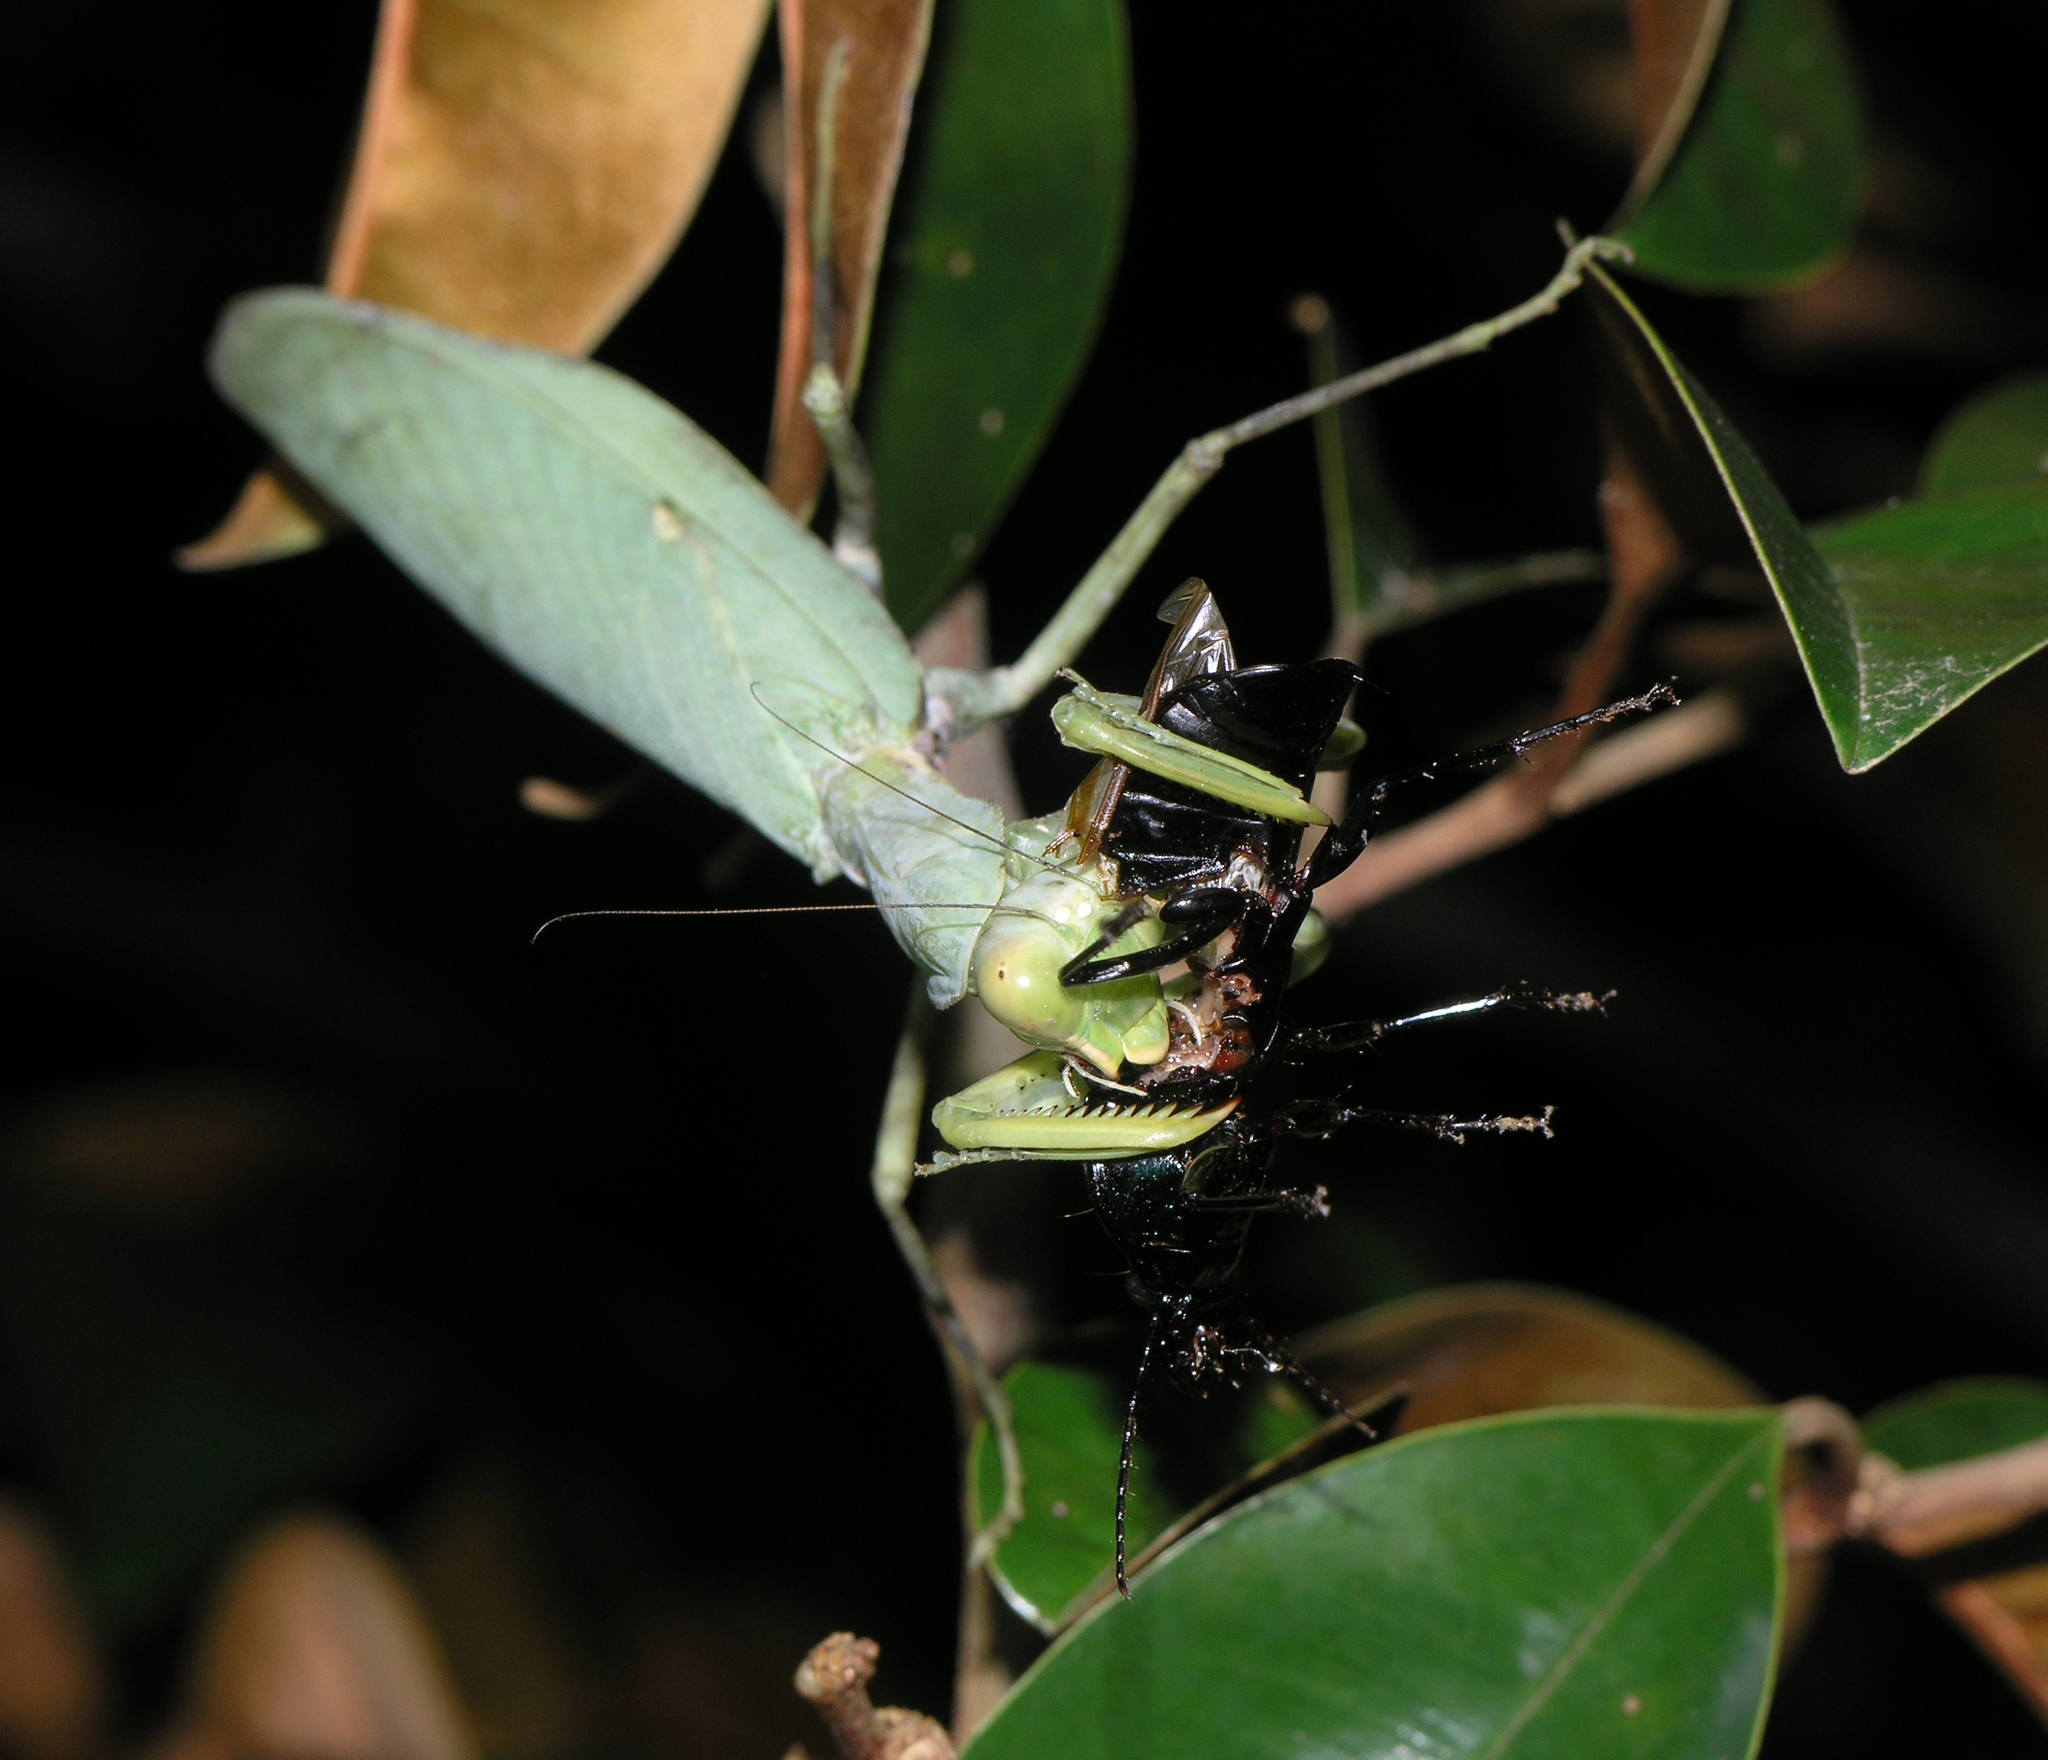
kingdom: Animalia
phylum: Arthropoda
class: Insecta
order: Mantodea
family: Mantidae
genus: Hierodula
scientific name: Hierodula patellifera
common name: Asian mantis
